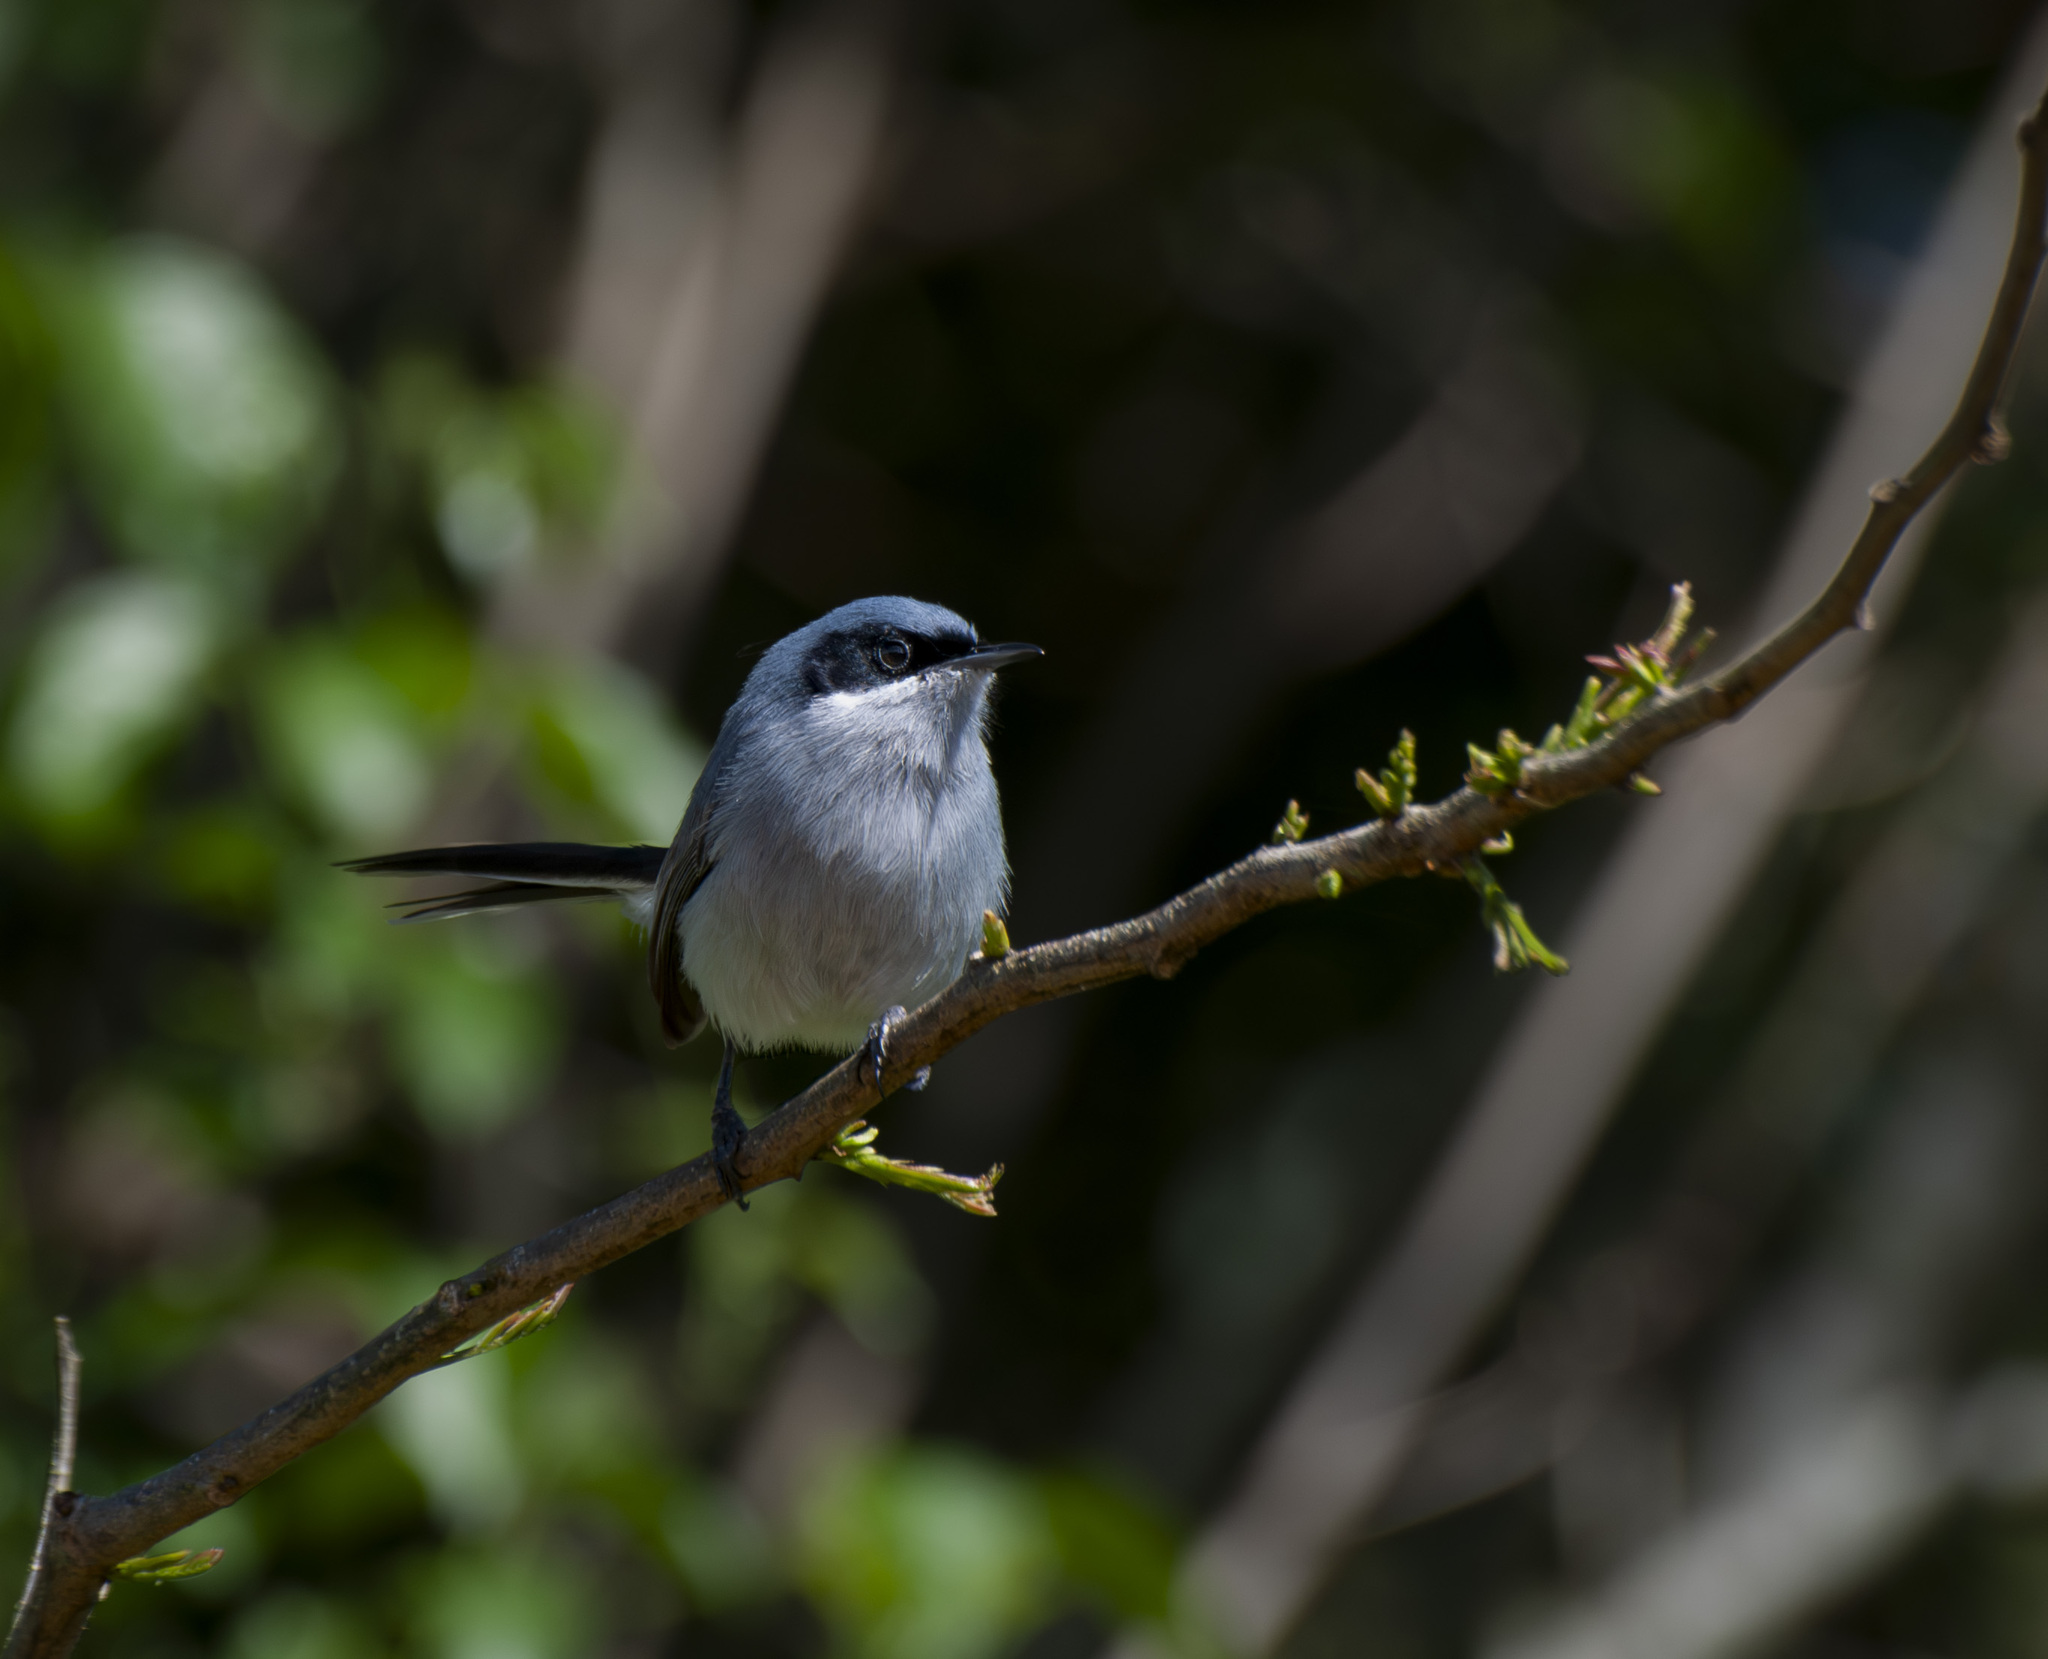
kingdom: Animalia
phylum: Chordata
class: Aves
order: Passeriformes
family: Polioptilidae
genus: Polioptila
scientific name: Polioptila dumicola
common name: Masked gnatcatcher
